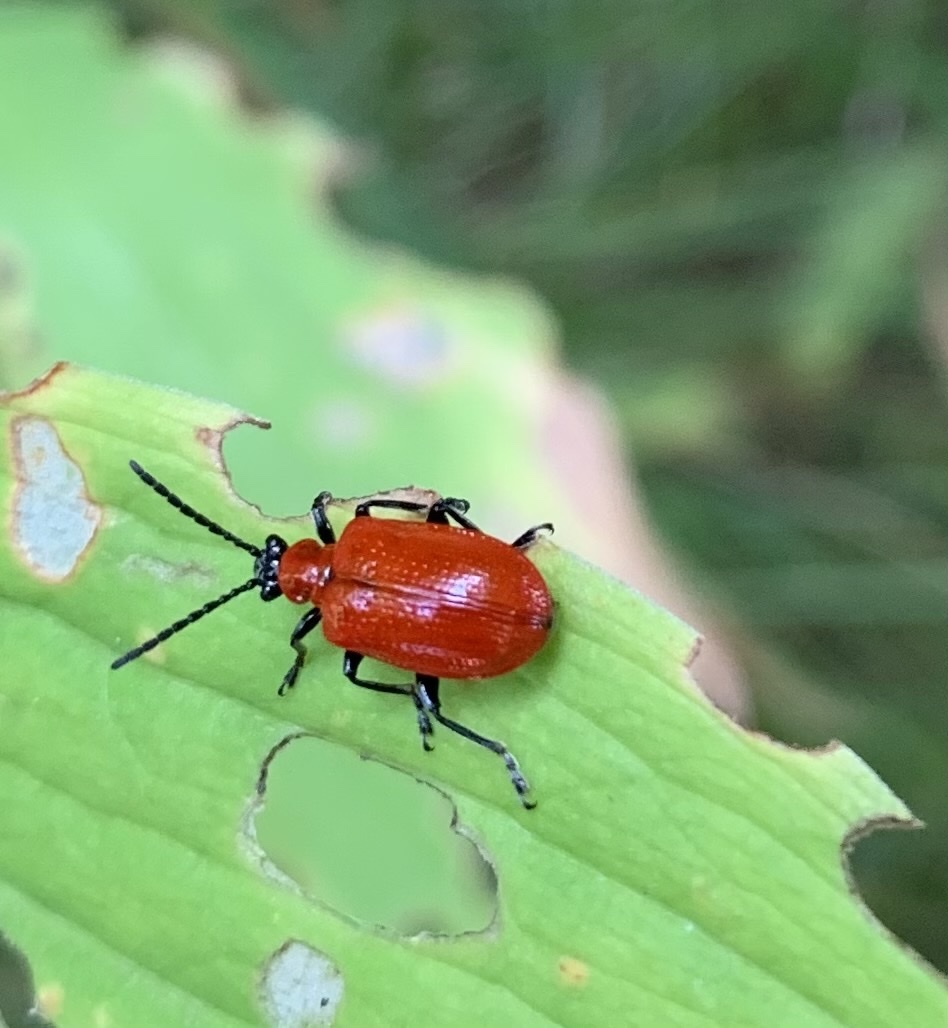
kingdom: Animalia
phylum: Arthropoda
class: Insecta
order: Coleoptera
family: Chrysomelidae
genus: Lilioceris
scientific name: Lilioceris lilii
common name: Lily beetle
